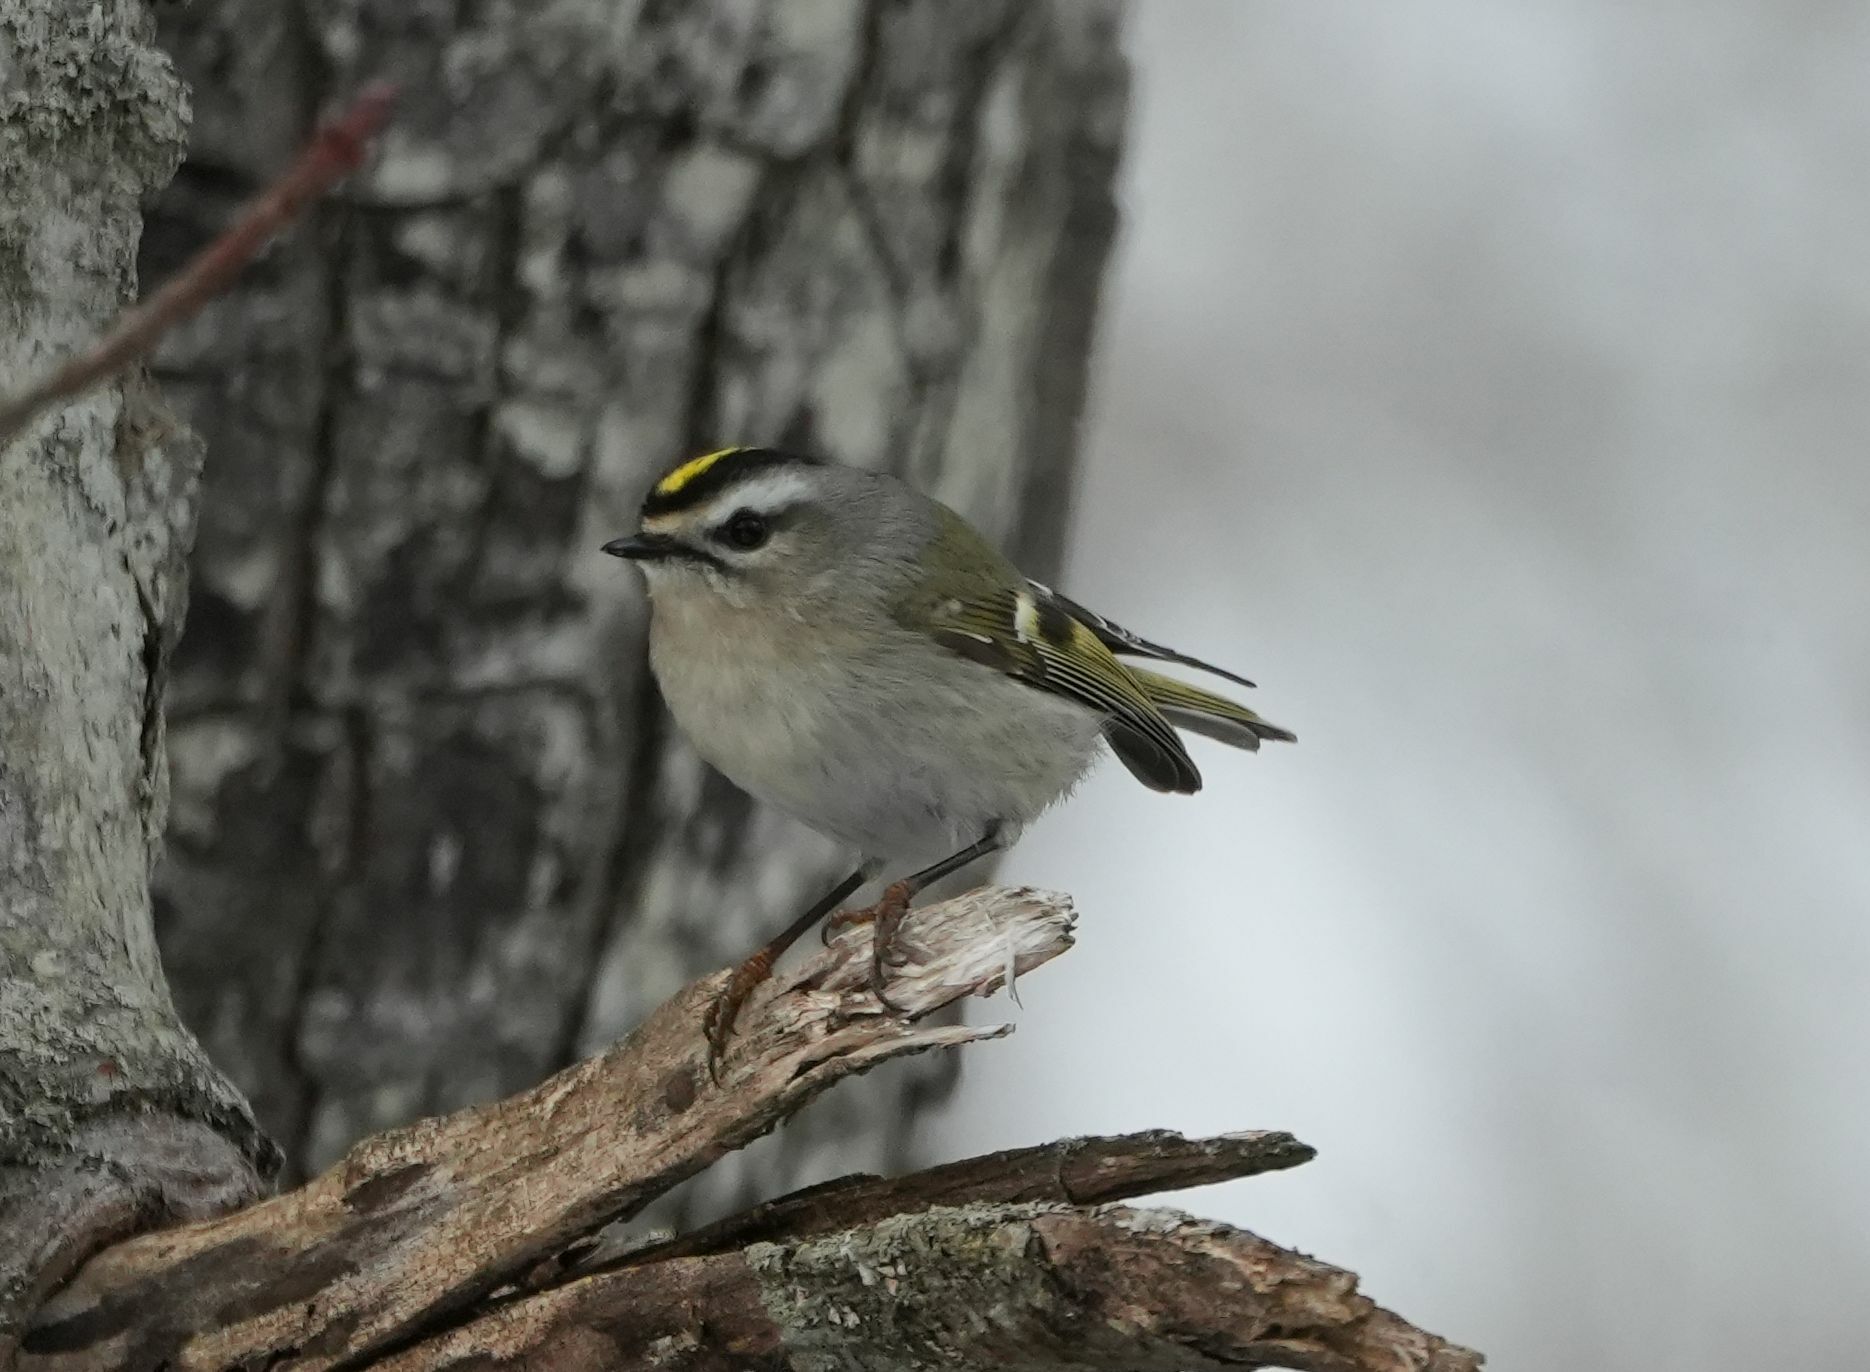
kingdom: Animalia
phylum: Chordata
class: Aves
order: Passeriformes
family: Regulidae
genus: Regulus
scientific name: Regulus satrapa
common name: Golden-crowned kinglet
